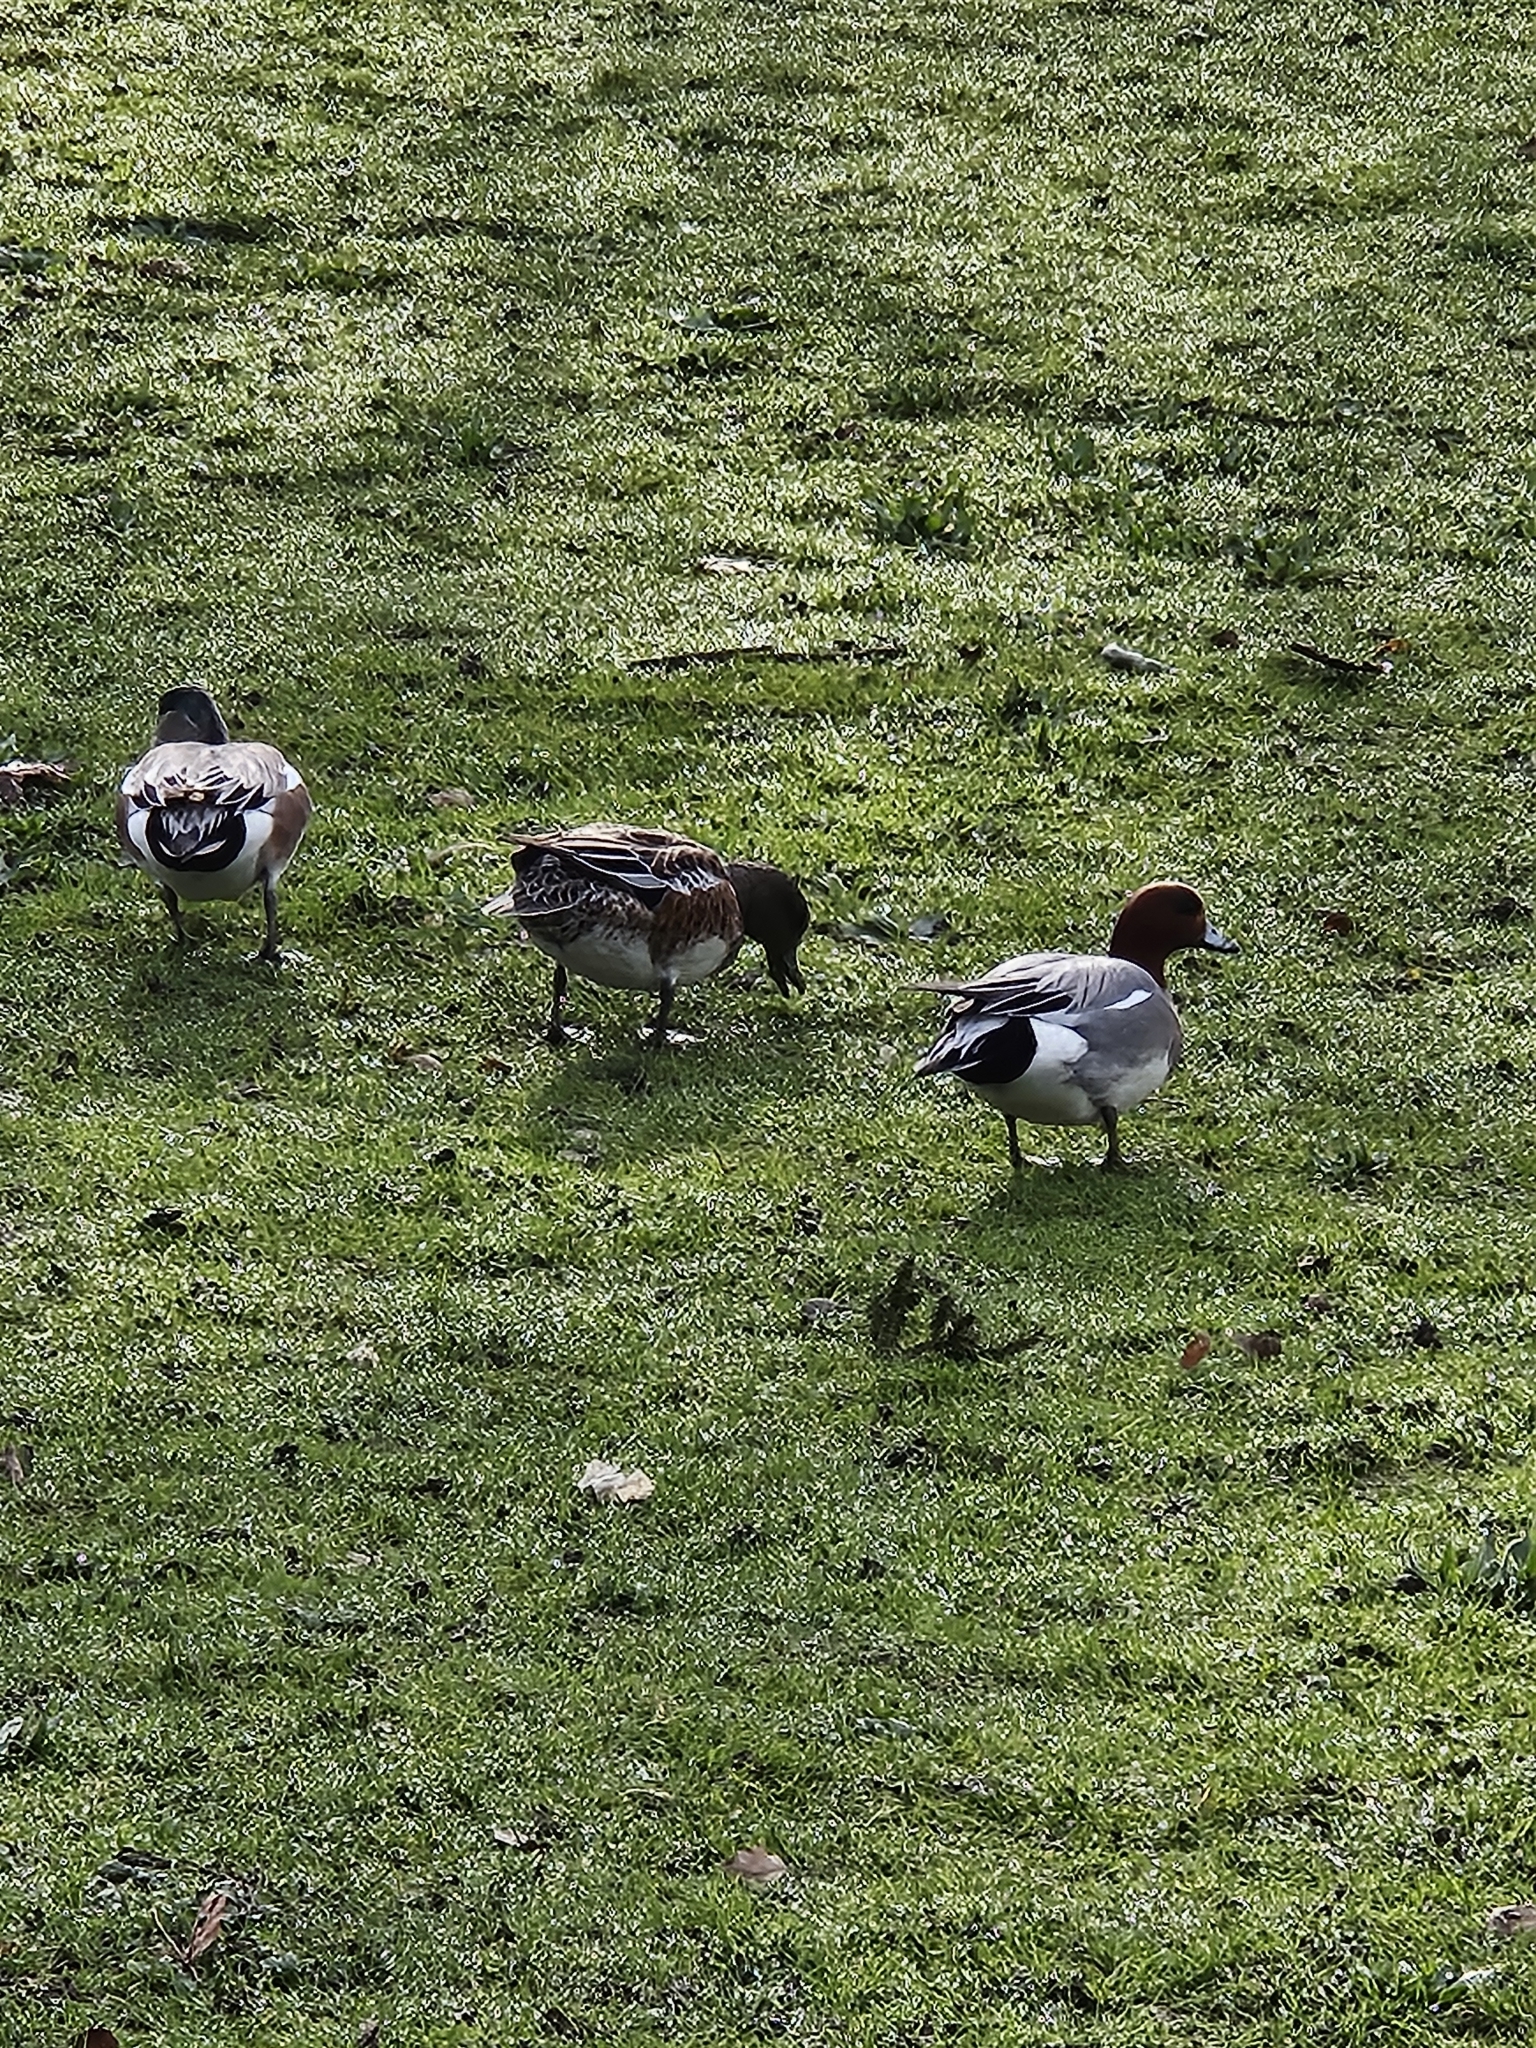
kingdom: Animalia
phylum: Chordata
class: Aves
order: Anseriformes
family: Anatidae
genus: Mareca
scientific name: Mareca penelope
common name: Eurasian wigeon
